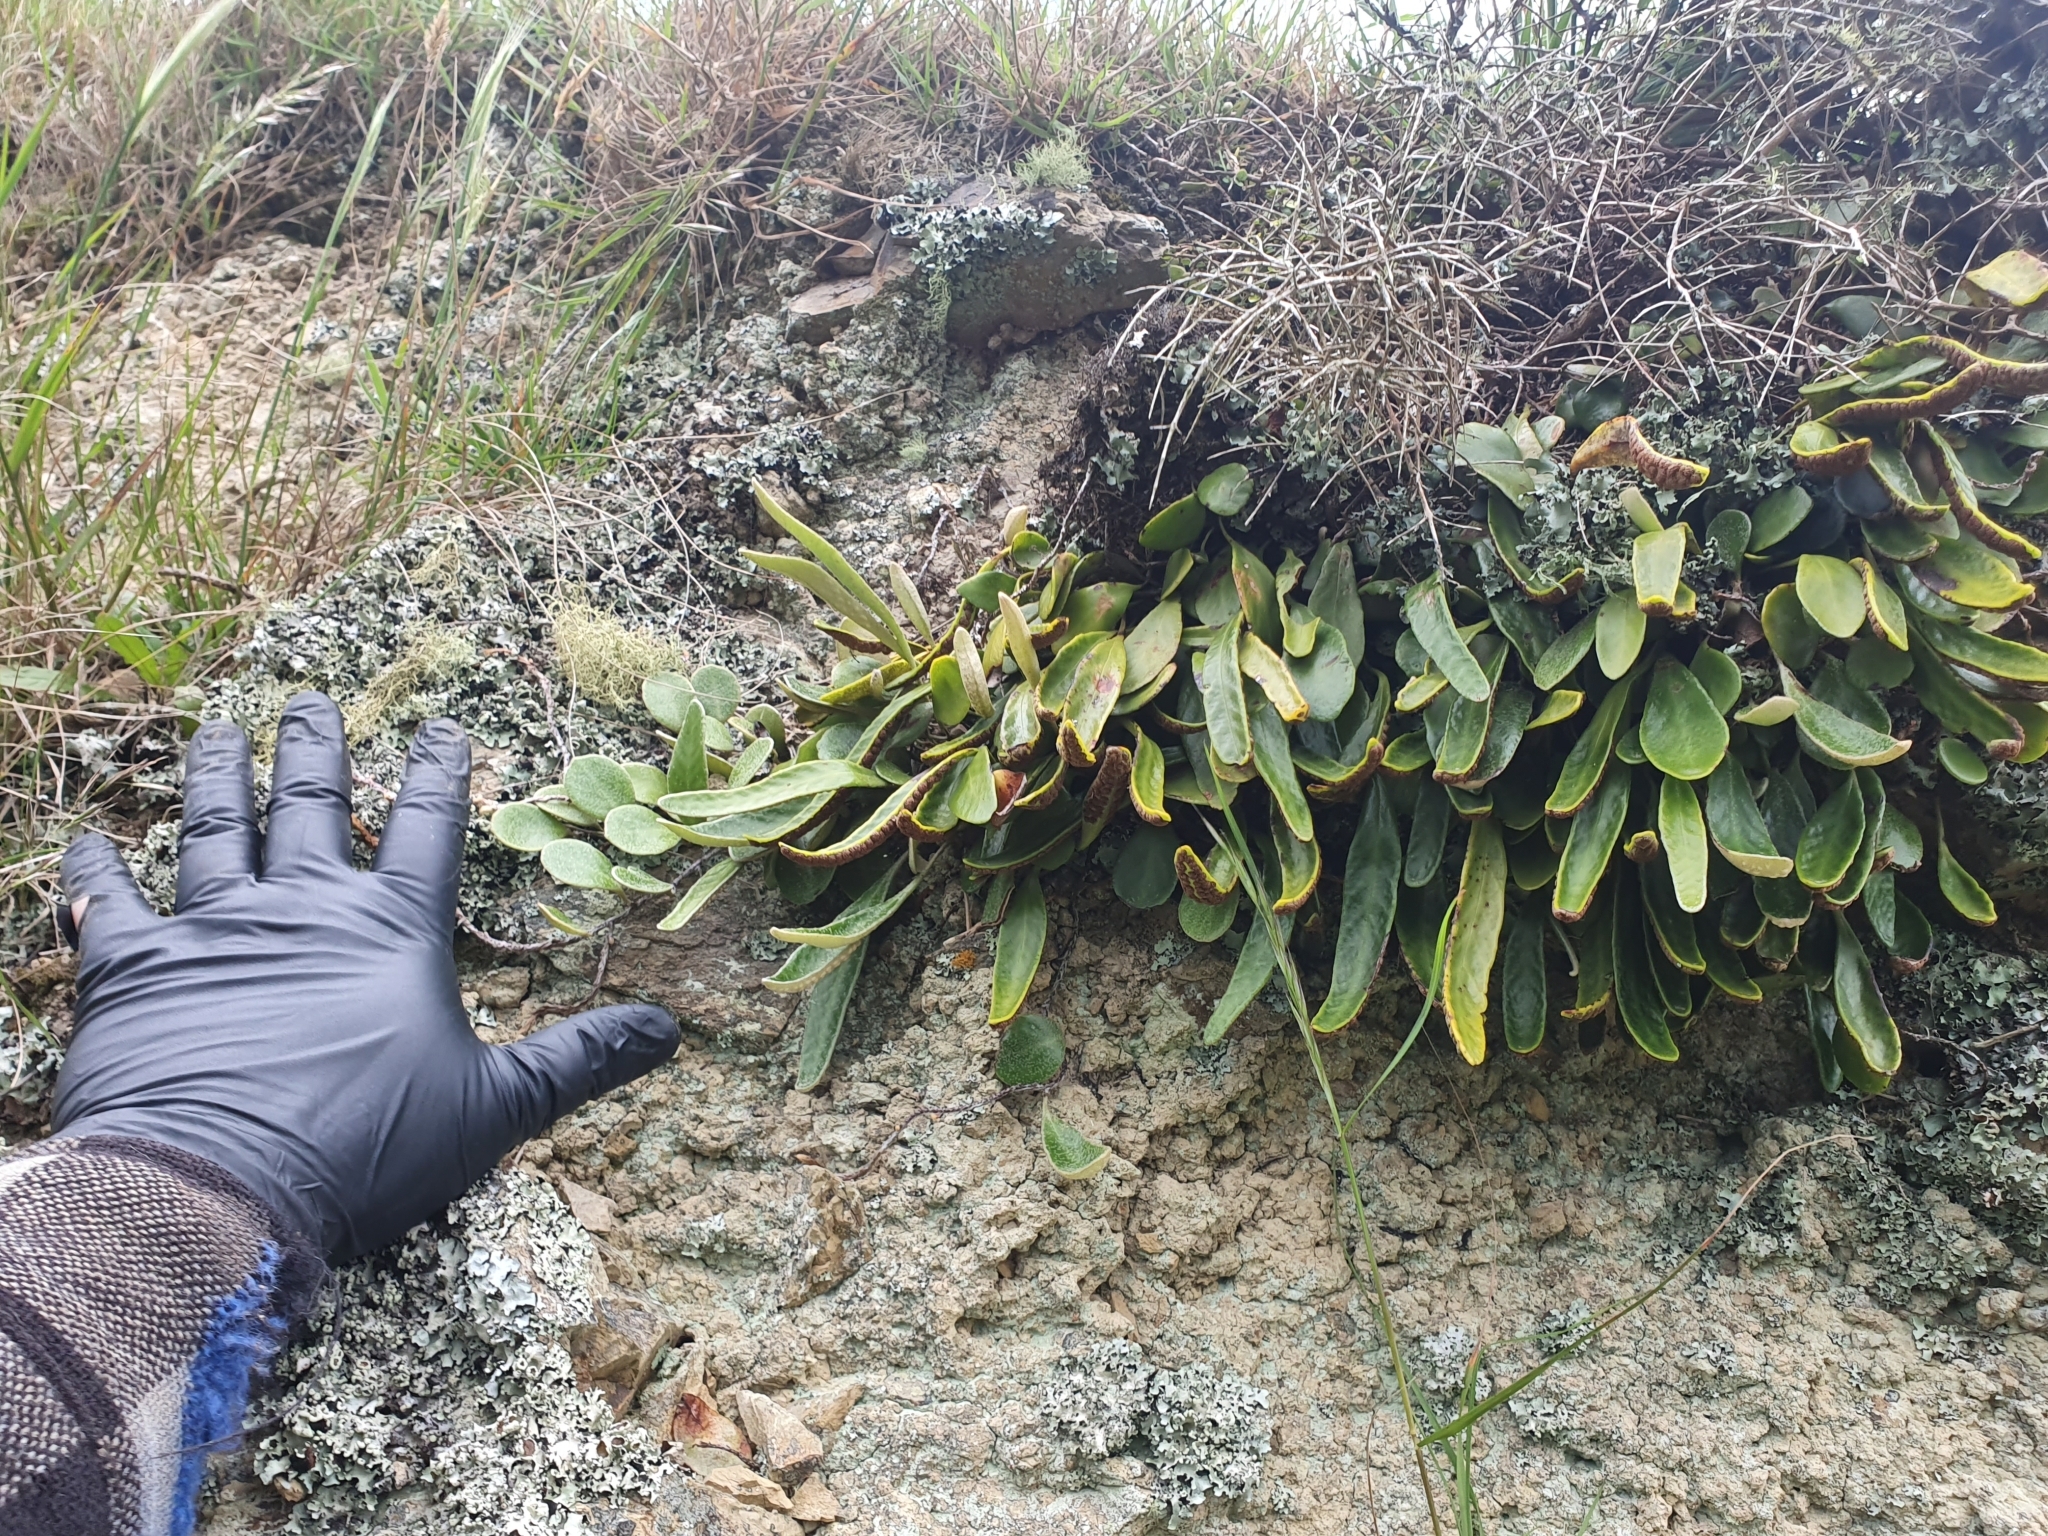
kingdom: Plantae
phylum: Tracheophyta
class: Polypodiopsida
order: Polypodiales
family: Polypodiaceae
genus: Pyrrosia
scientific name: Pyrrosia eleagnifolia
